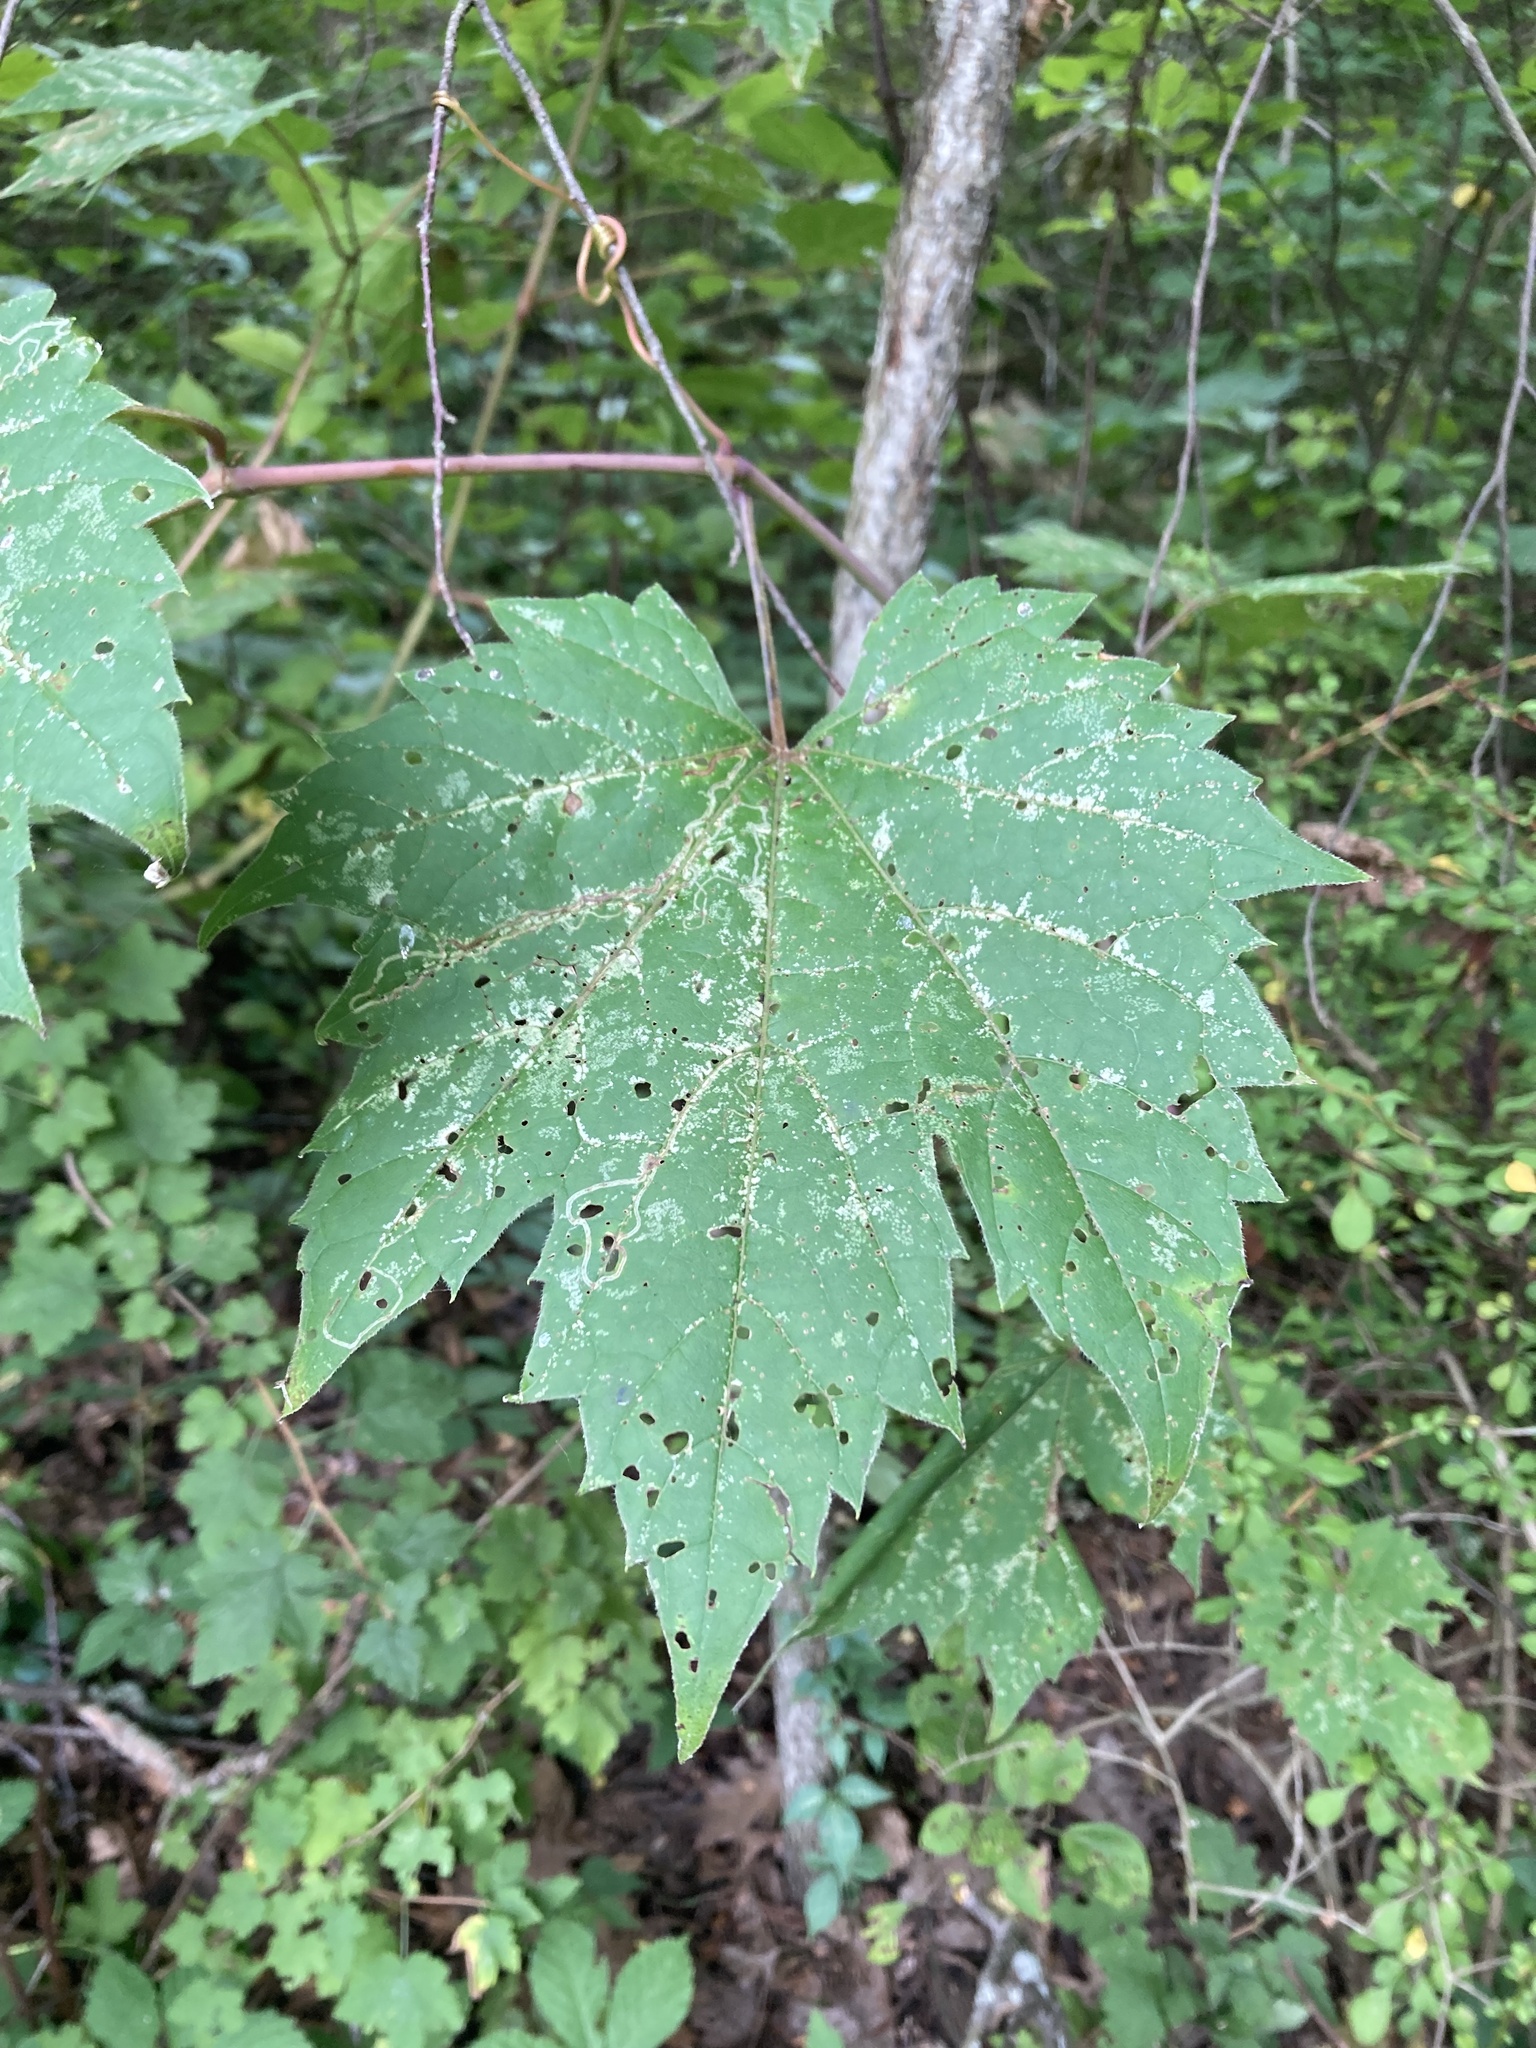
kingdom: Plantae
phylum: Tracheophyta
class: Magnoliopsida
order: Vitales
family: Vitaceae
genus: Vitis
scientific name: Vitis riparia
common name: Frost grape
